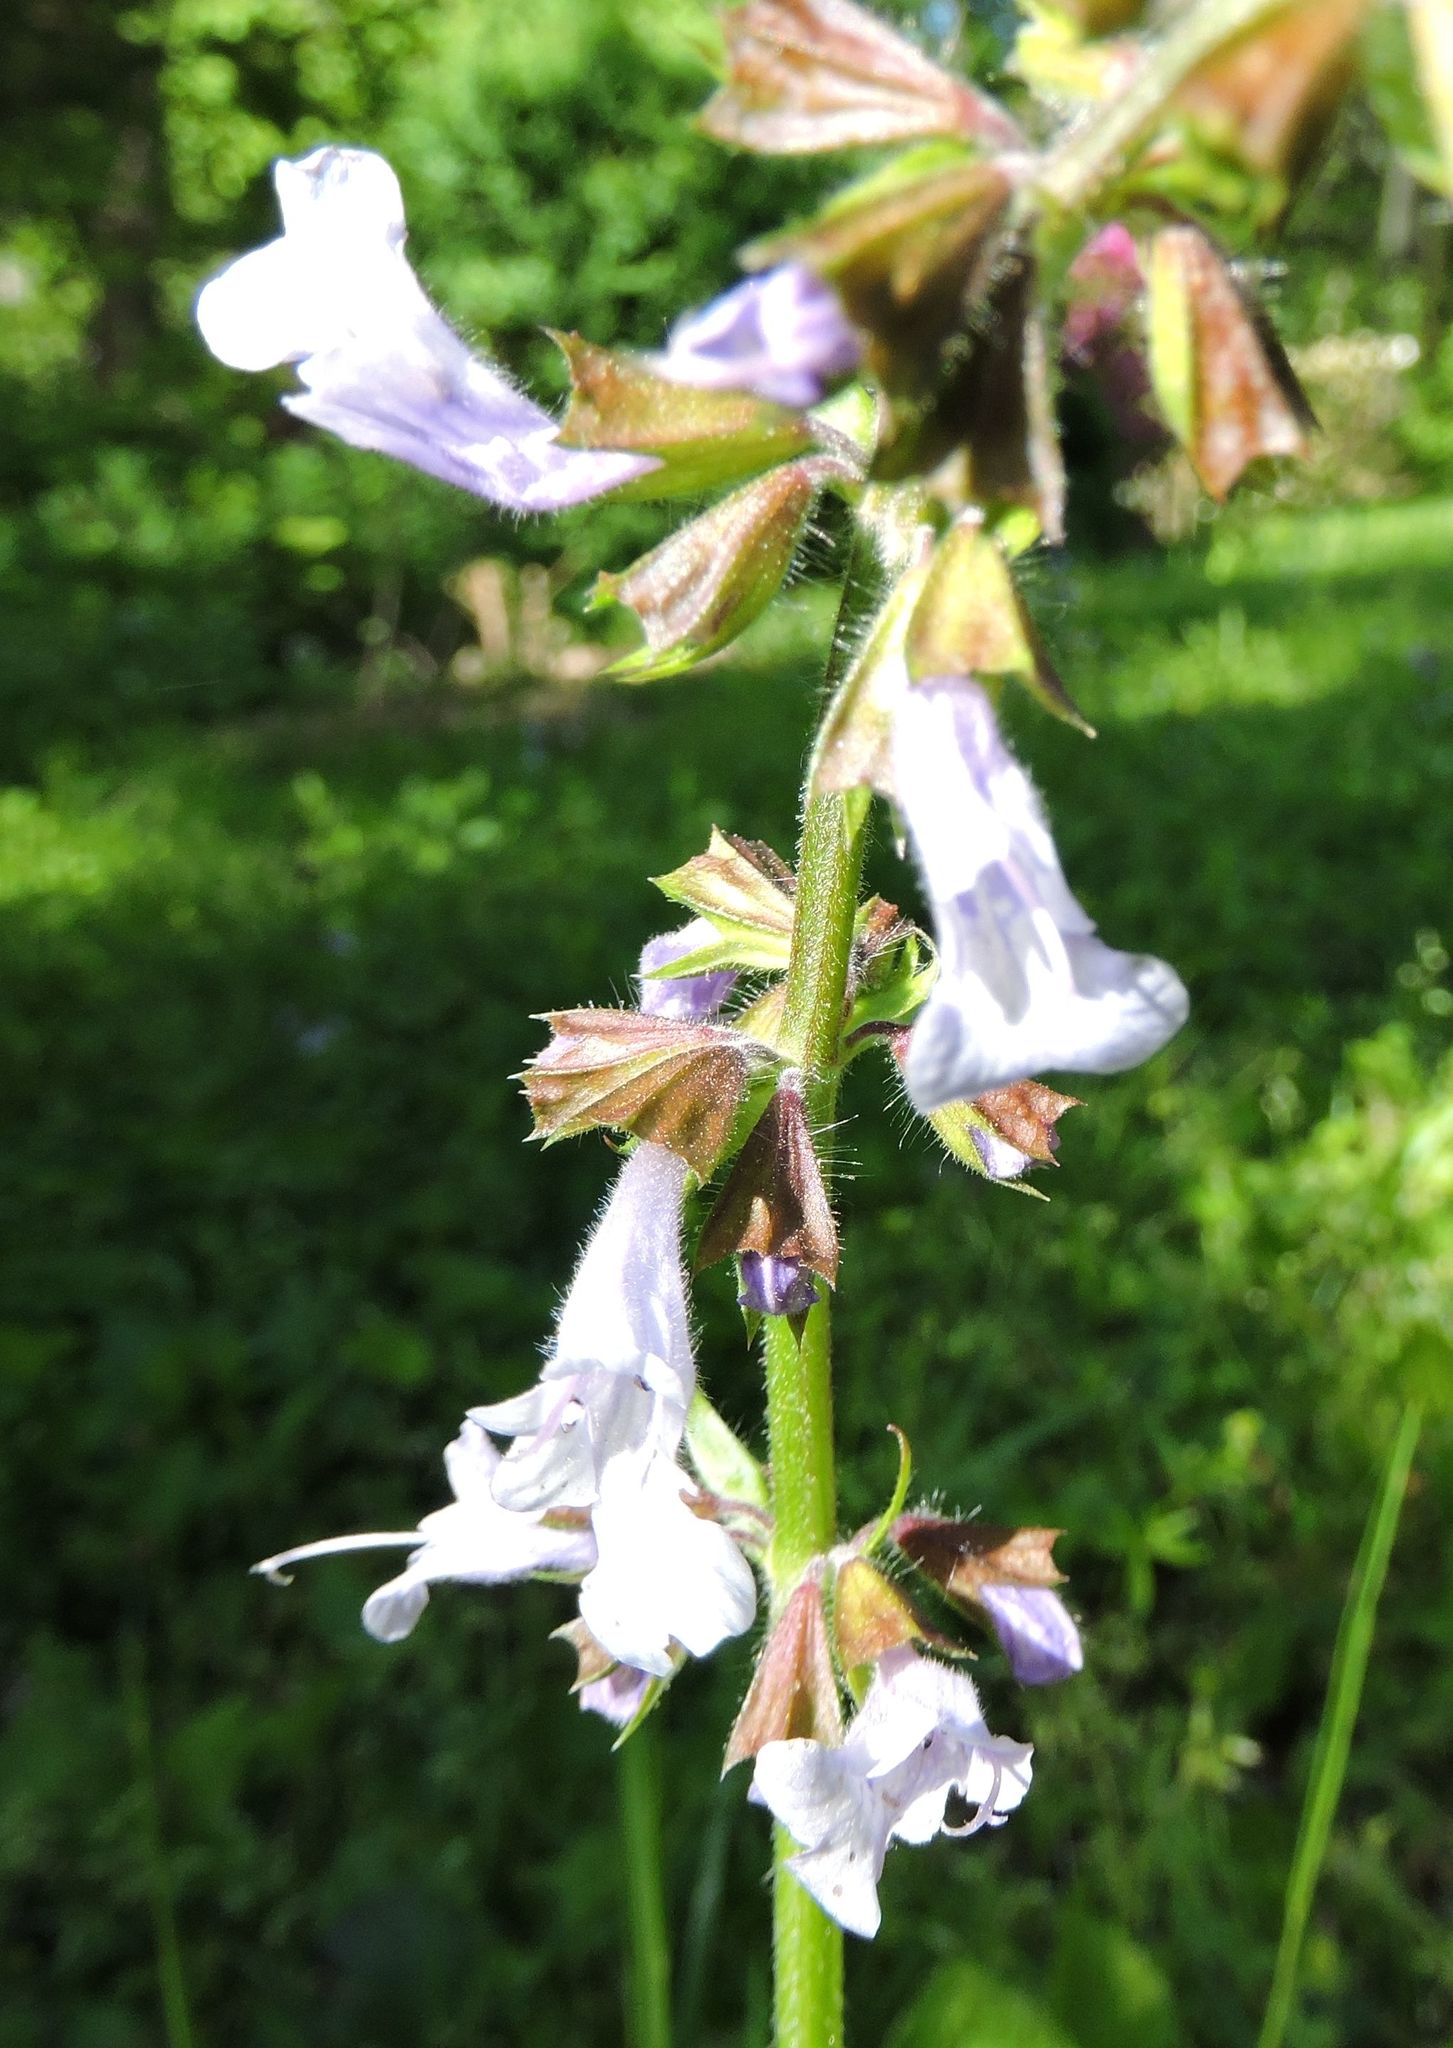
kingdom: Plantae
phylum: Tracheophyta
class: Magnoliopsida
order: Lamiales
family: Lamiaceae
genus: Salvia
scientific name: Salvia lyrata
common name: Cancerweed
